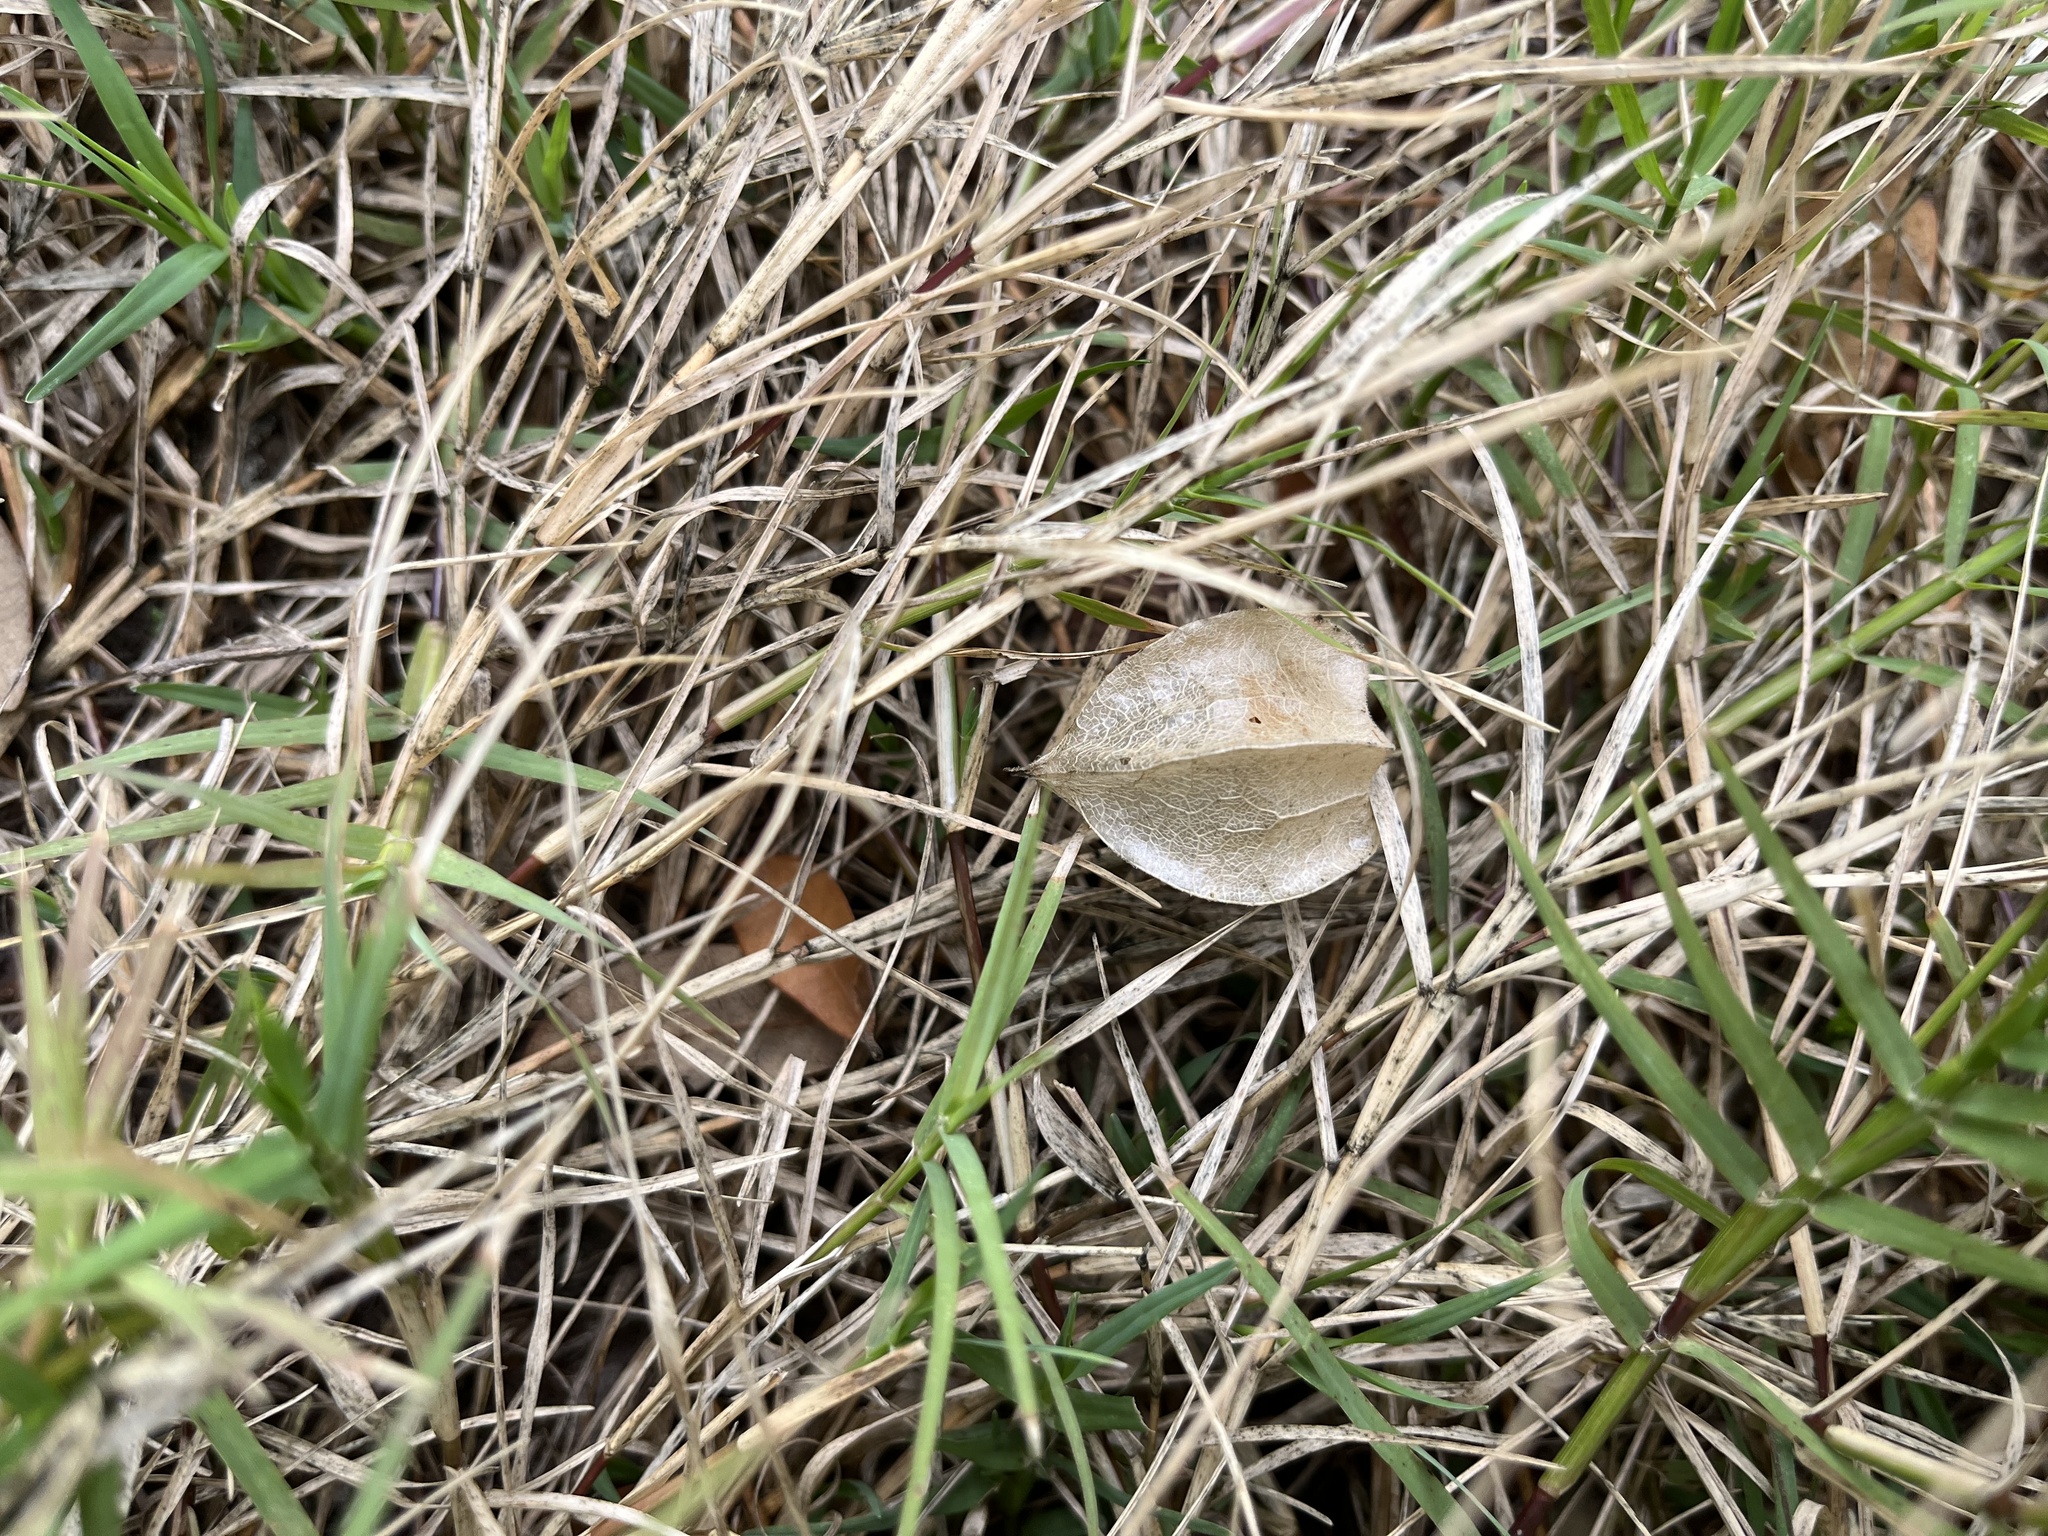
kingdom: Plantae
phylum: Tracheophyta
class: Magnoliopsida
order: Solanales
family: Solanaceae
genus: Physalis
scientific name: Physalis pubescens
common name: Downy ground-cherry
